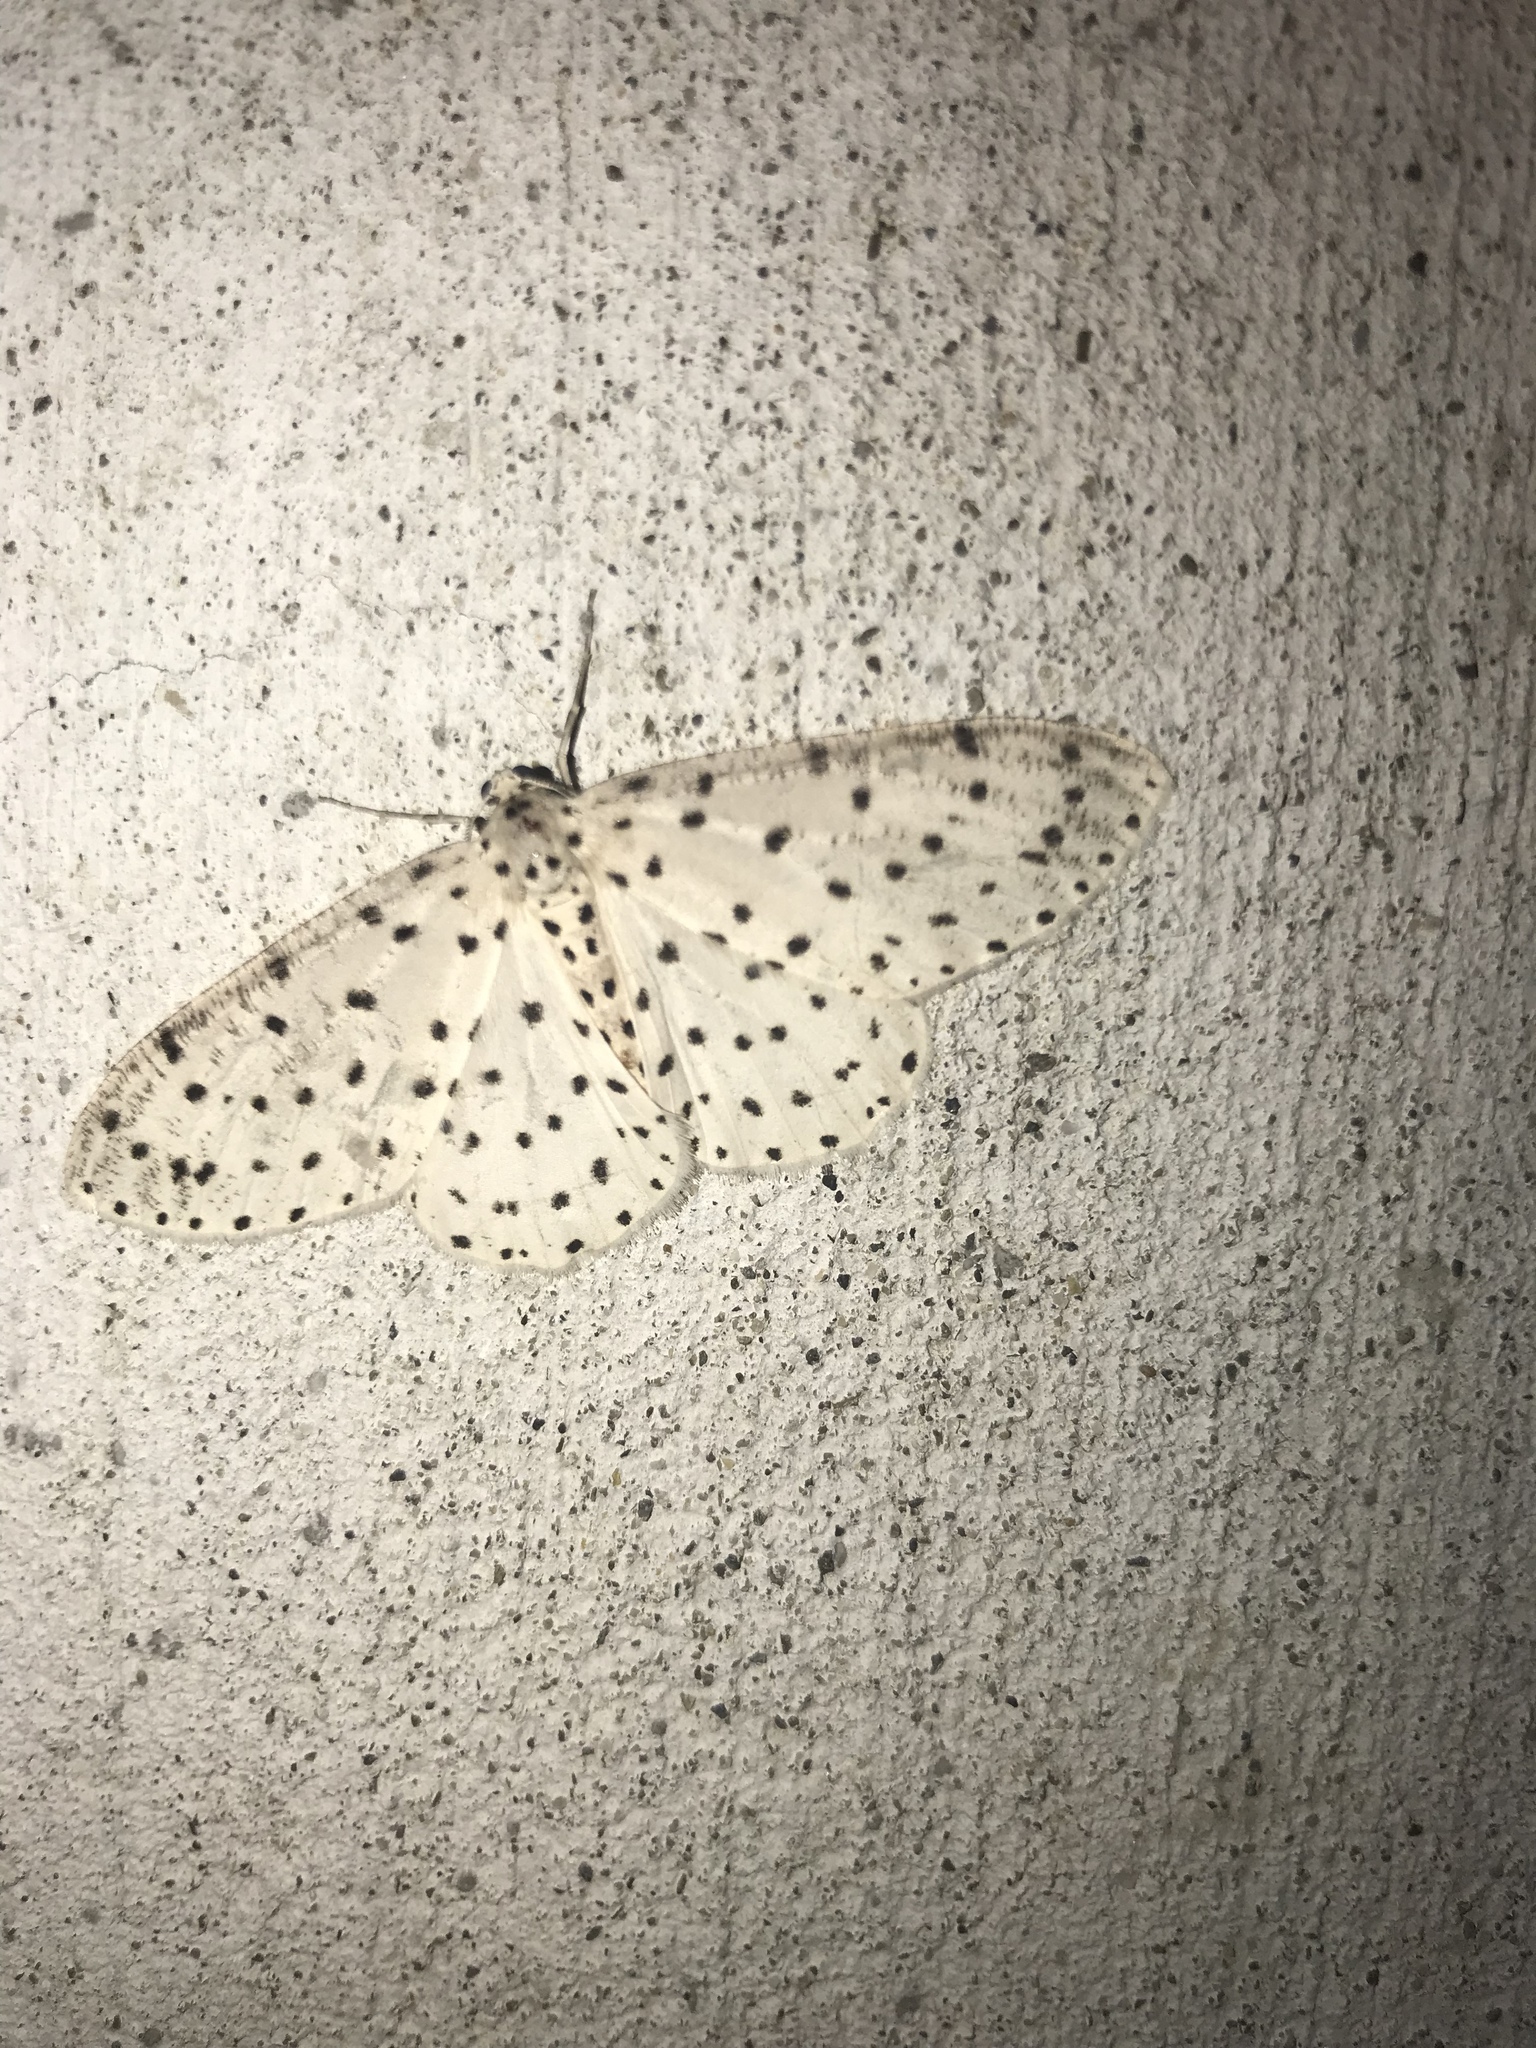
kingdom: Animalia
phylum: Arthropoda
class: Insecta
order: Lepidoptera
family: Geometridae
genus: Xenoplia
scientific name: Xenoplia trivialis
